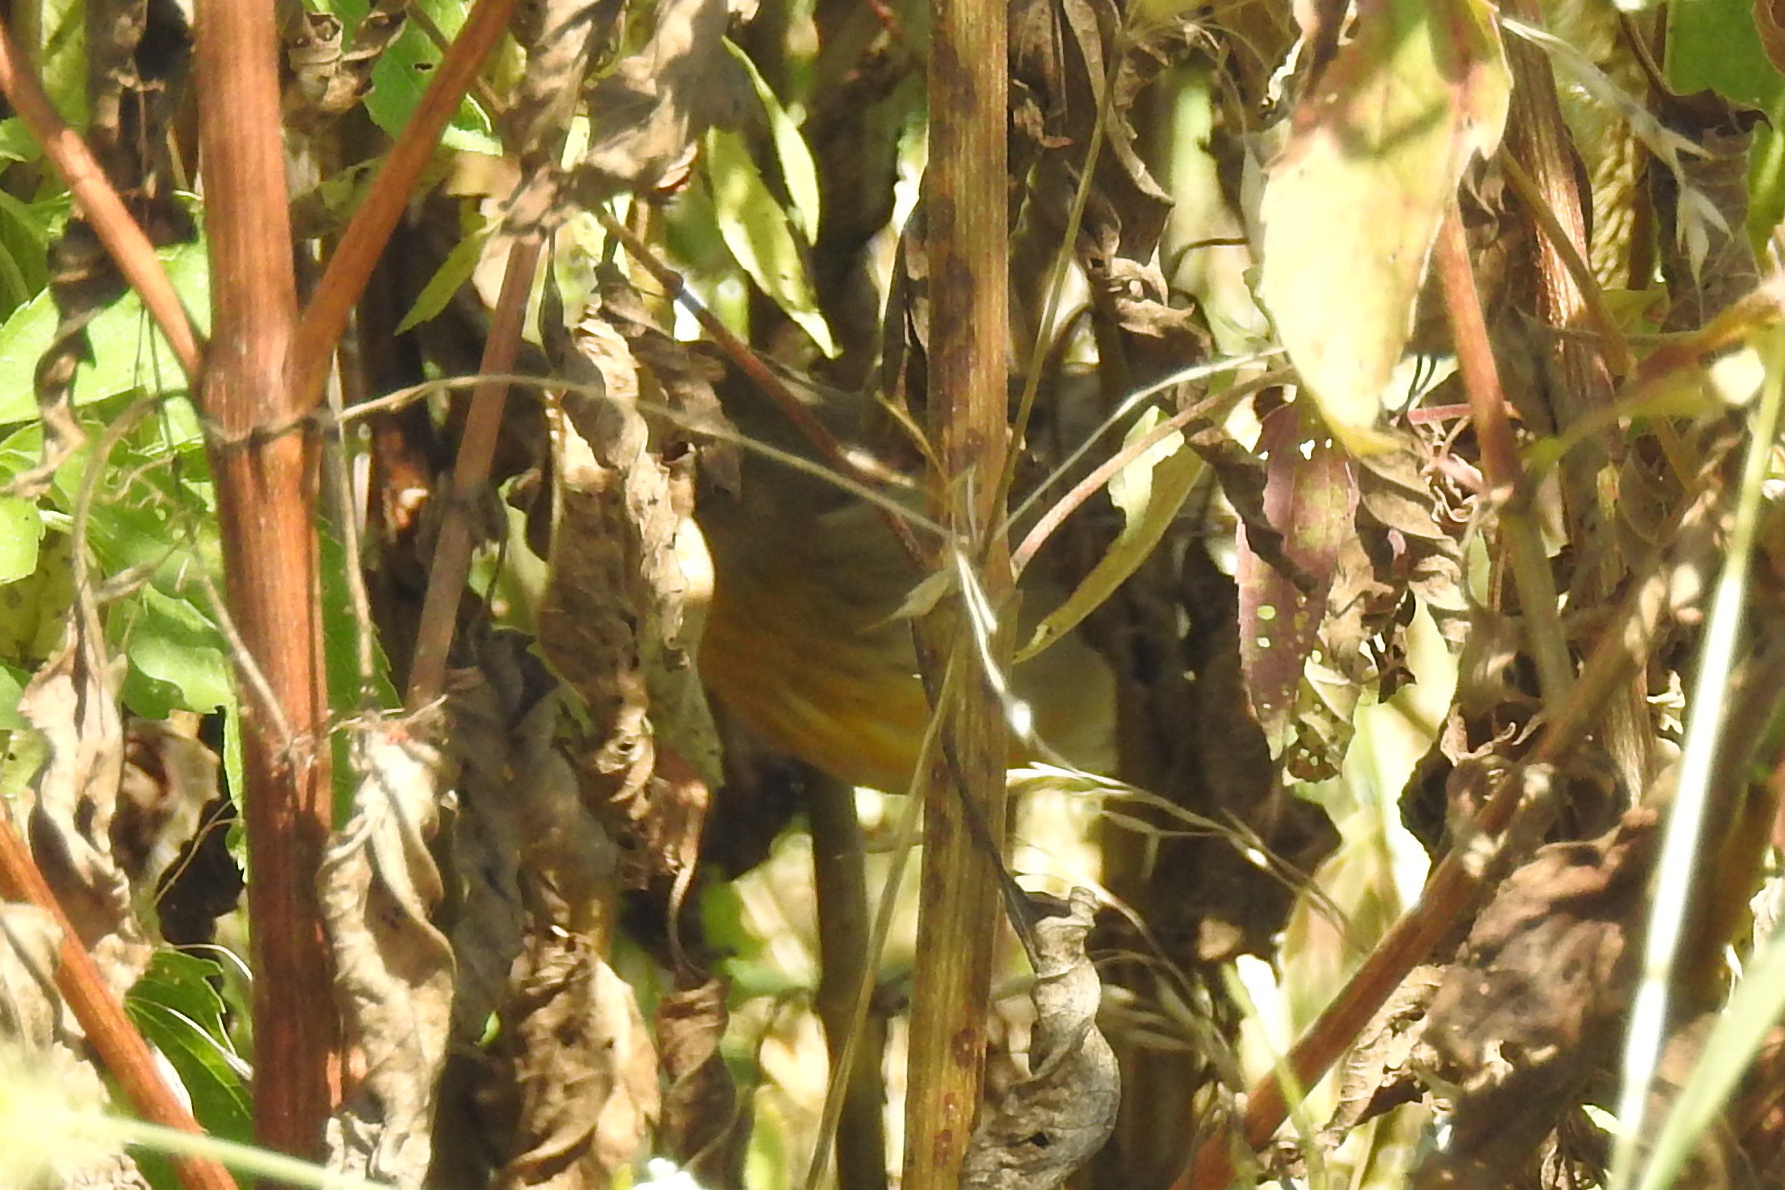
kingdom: Animalia
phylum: Chordata
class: Aves
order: Passeriformes
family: Cardinalidae
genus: Spiza
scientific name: Spiza americana
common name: Dickcissel
